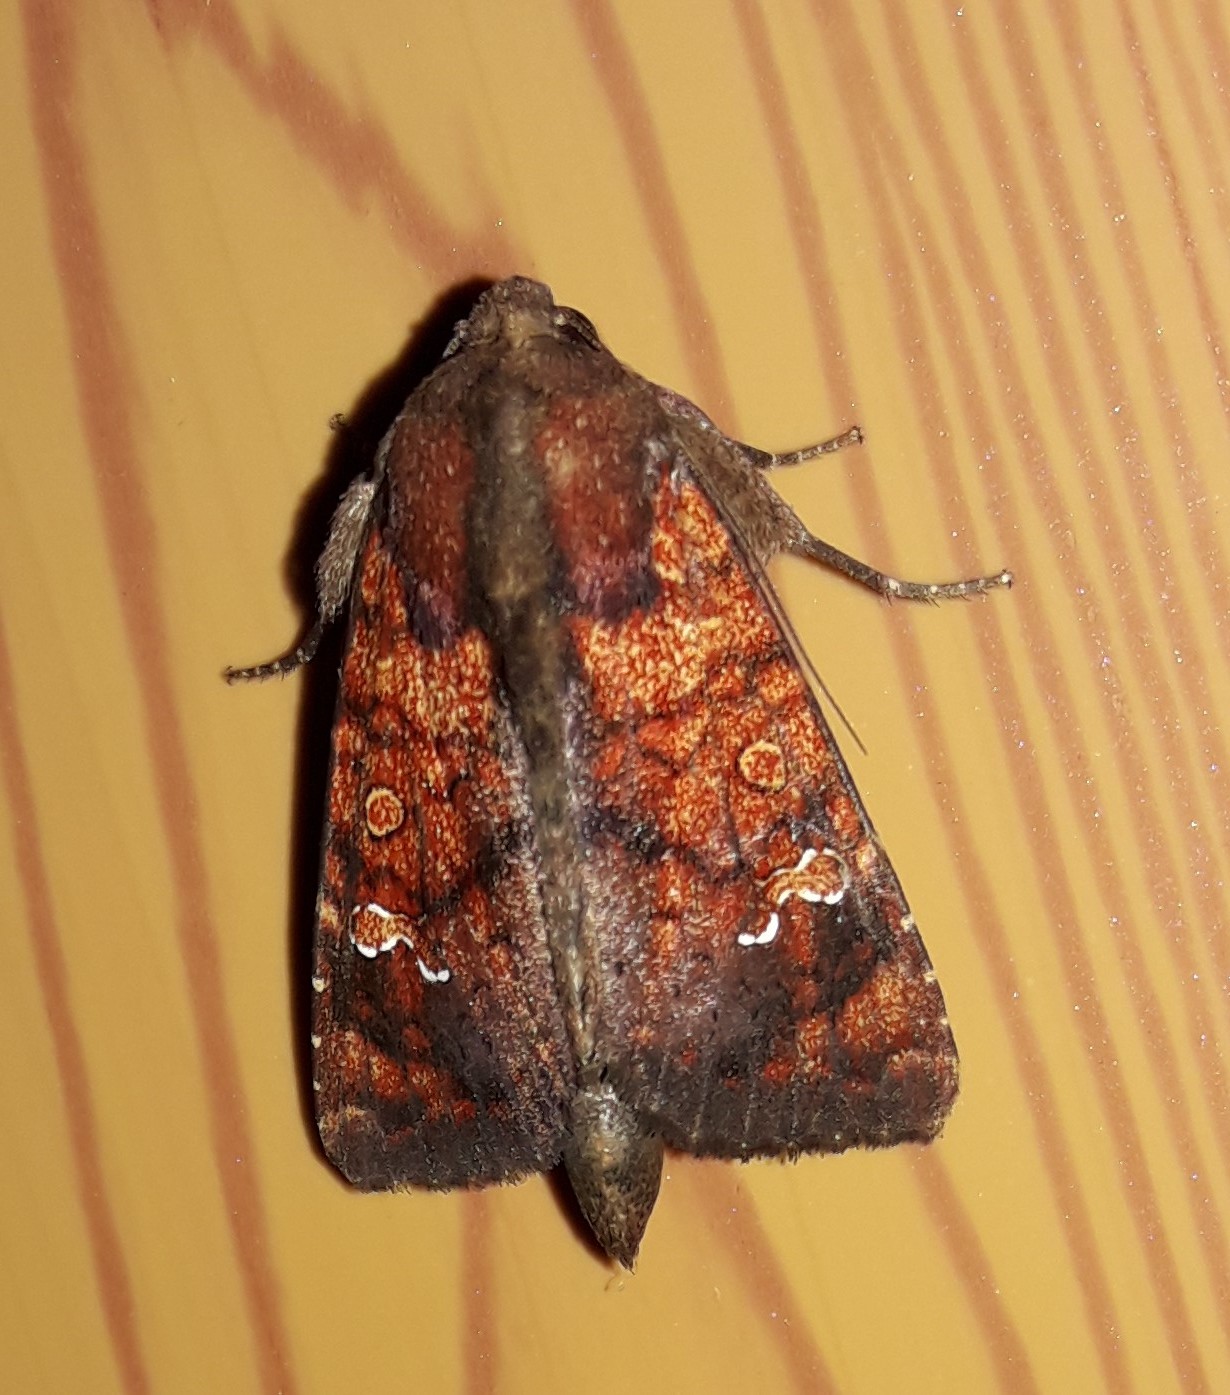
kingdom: Animalia
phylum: Arthropoda
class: Insecta
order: Lepidoptera
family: Noctuidae
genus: Eriopyga
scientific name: Eriopyga ditissima
